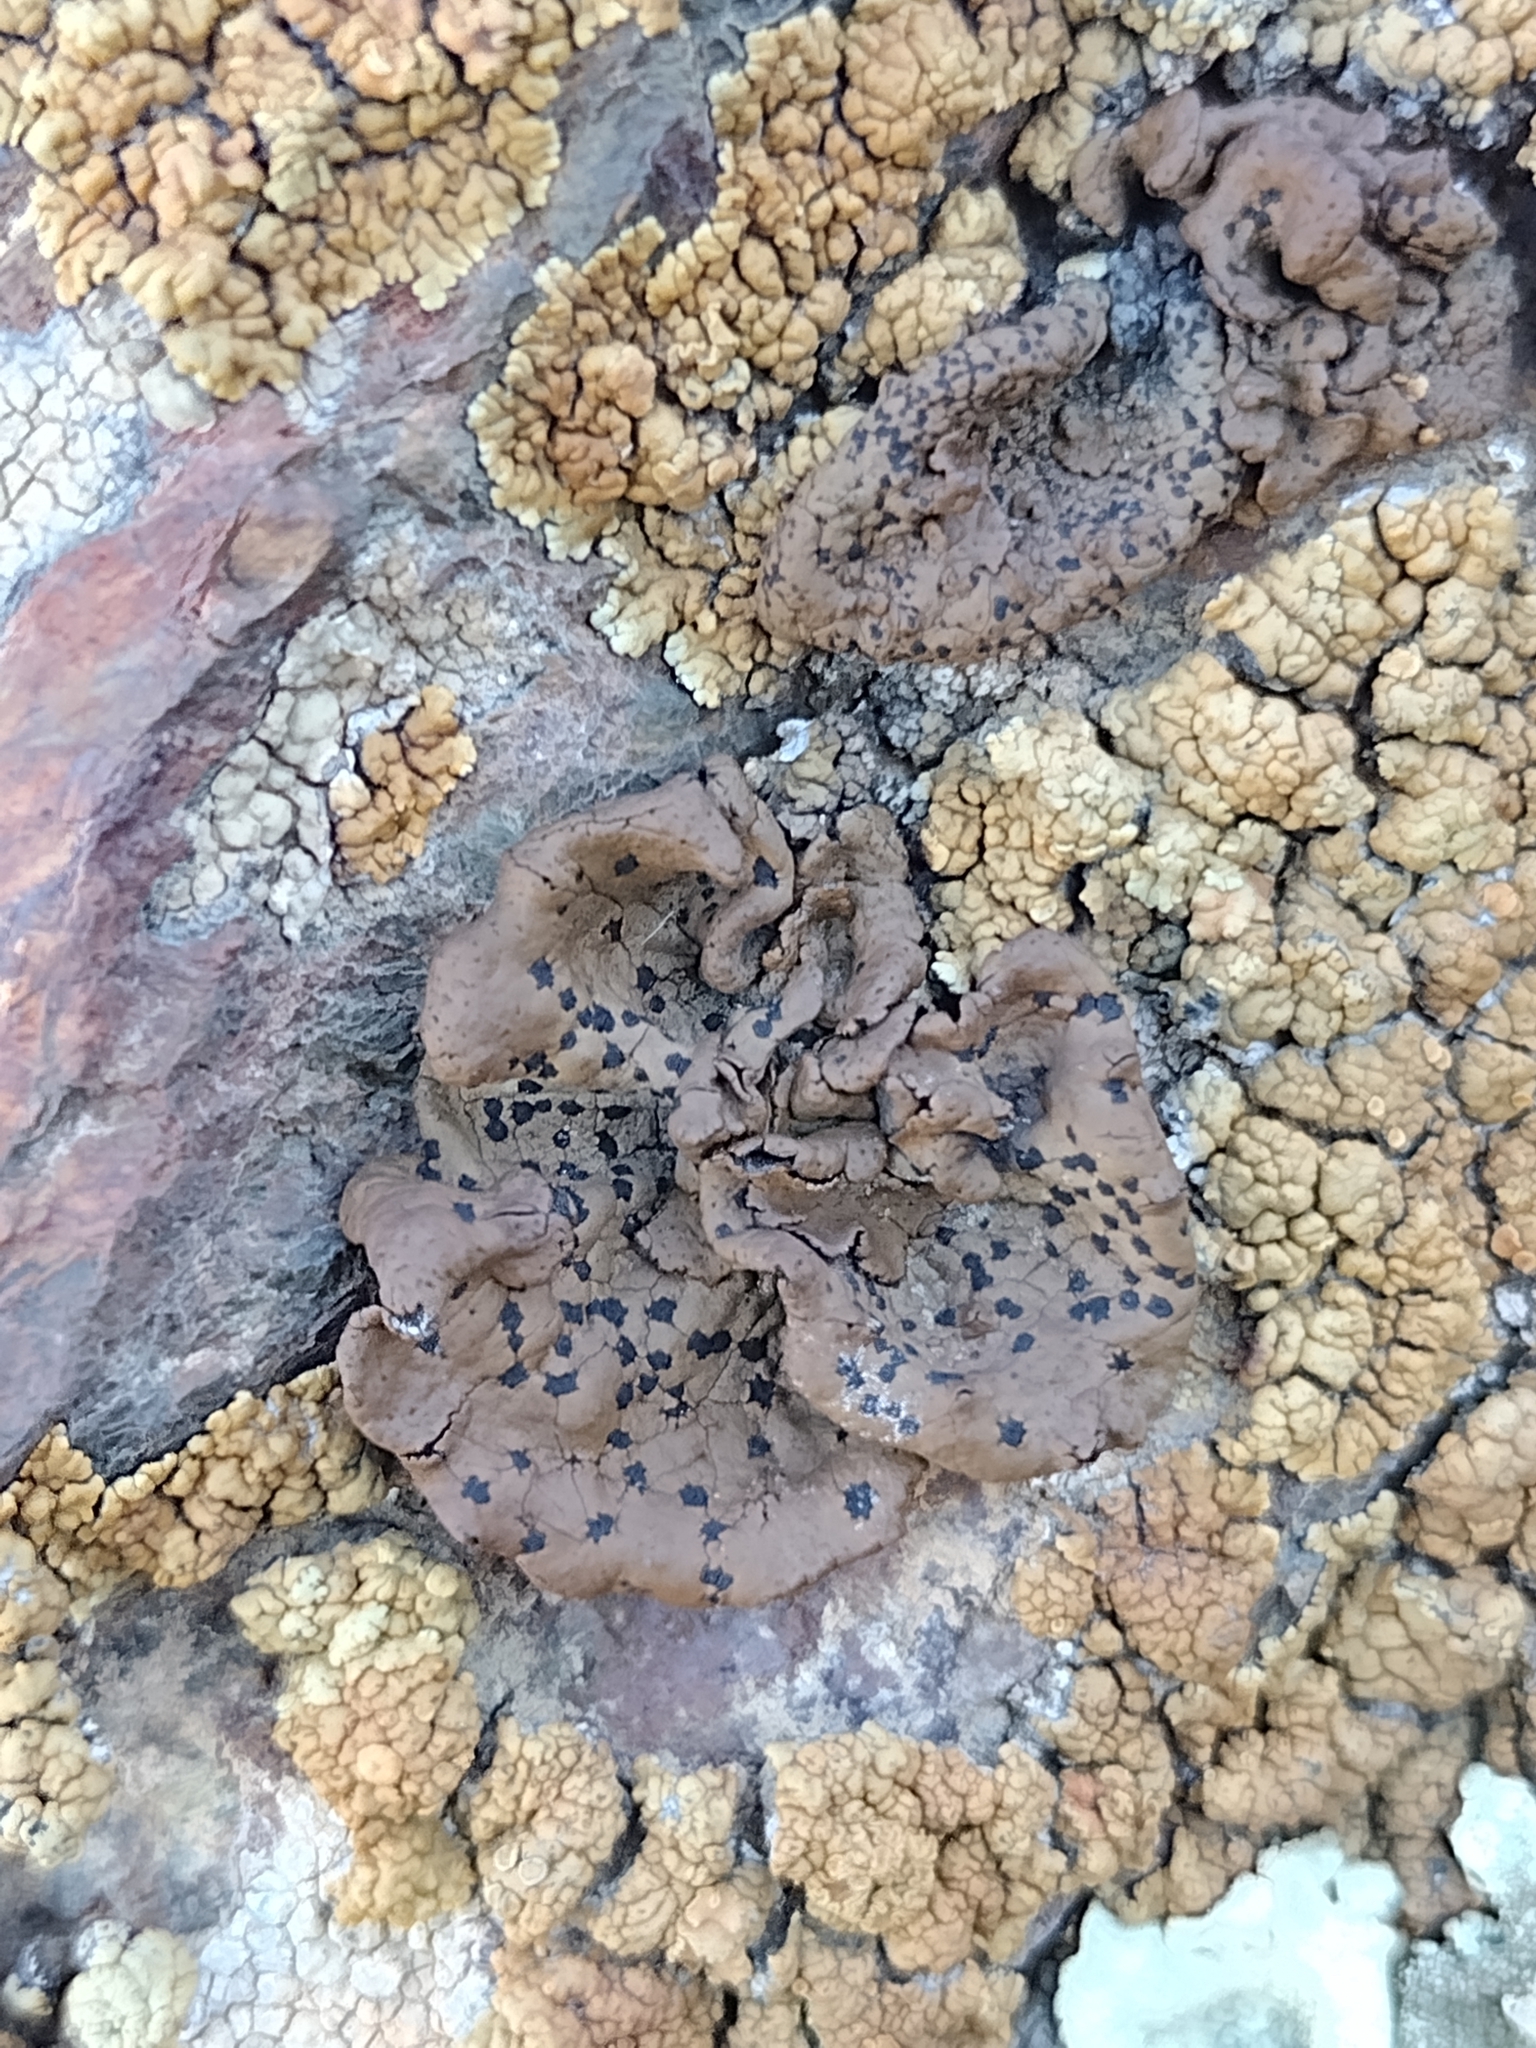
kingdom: Fungi
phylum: Ascomycota
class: Lecanoromycetes
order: Umbilicariales
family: Umbilicariaceae
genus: Umbilicaria
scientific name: Umbilicaria phaea
